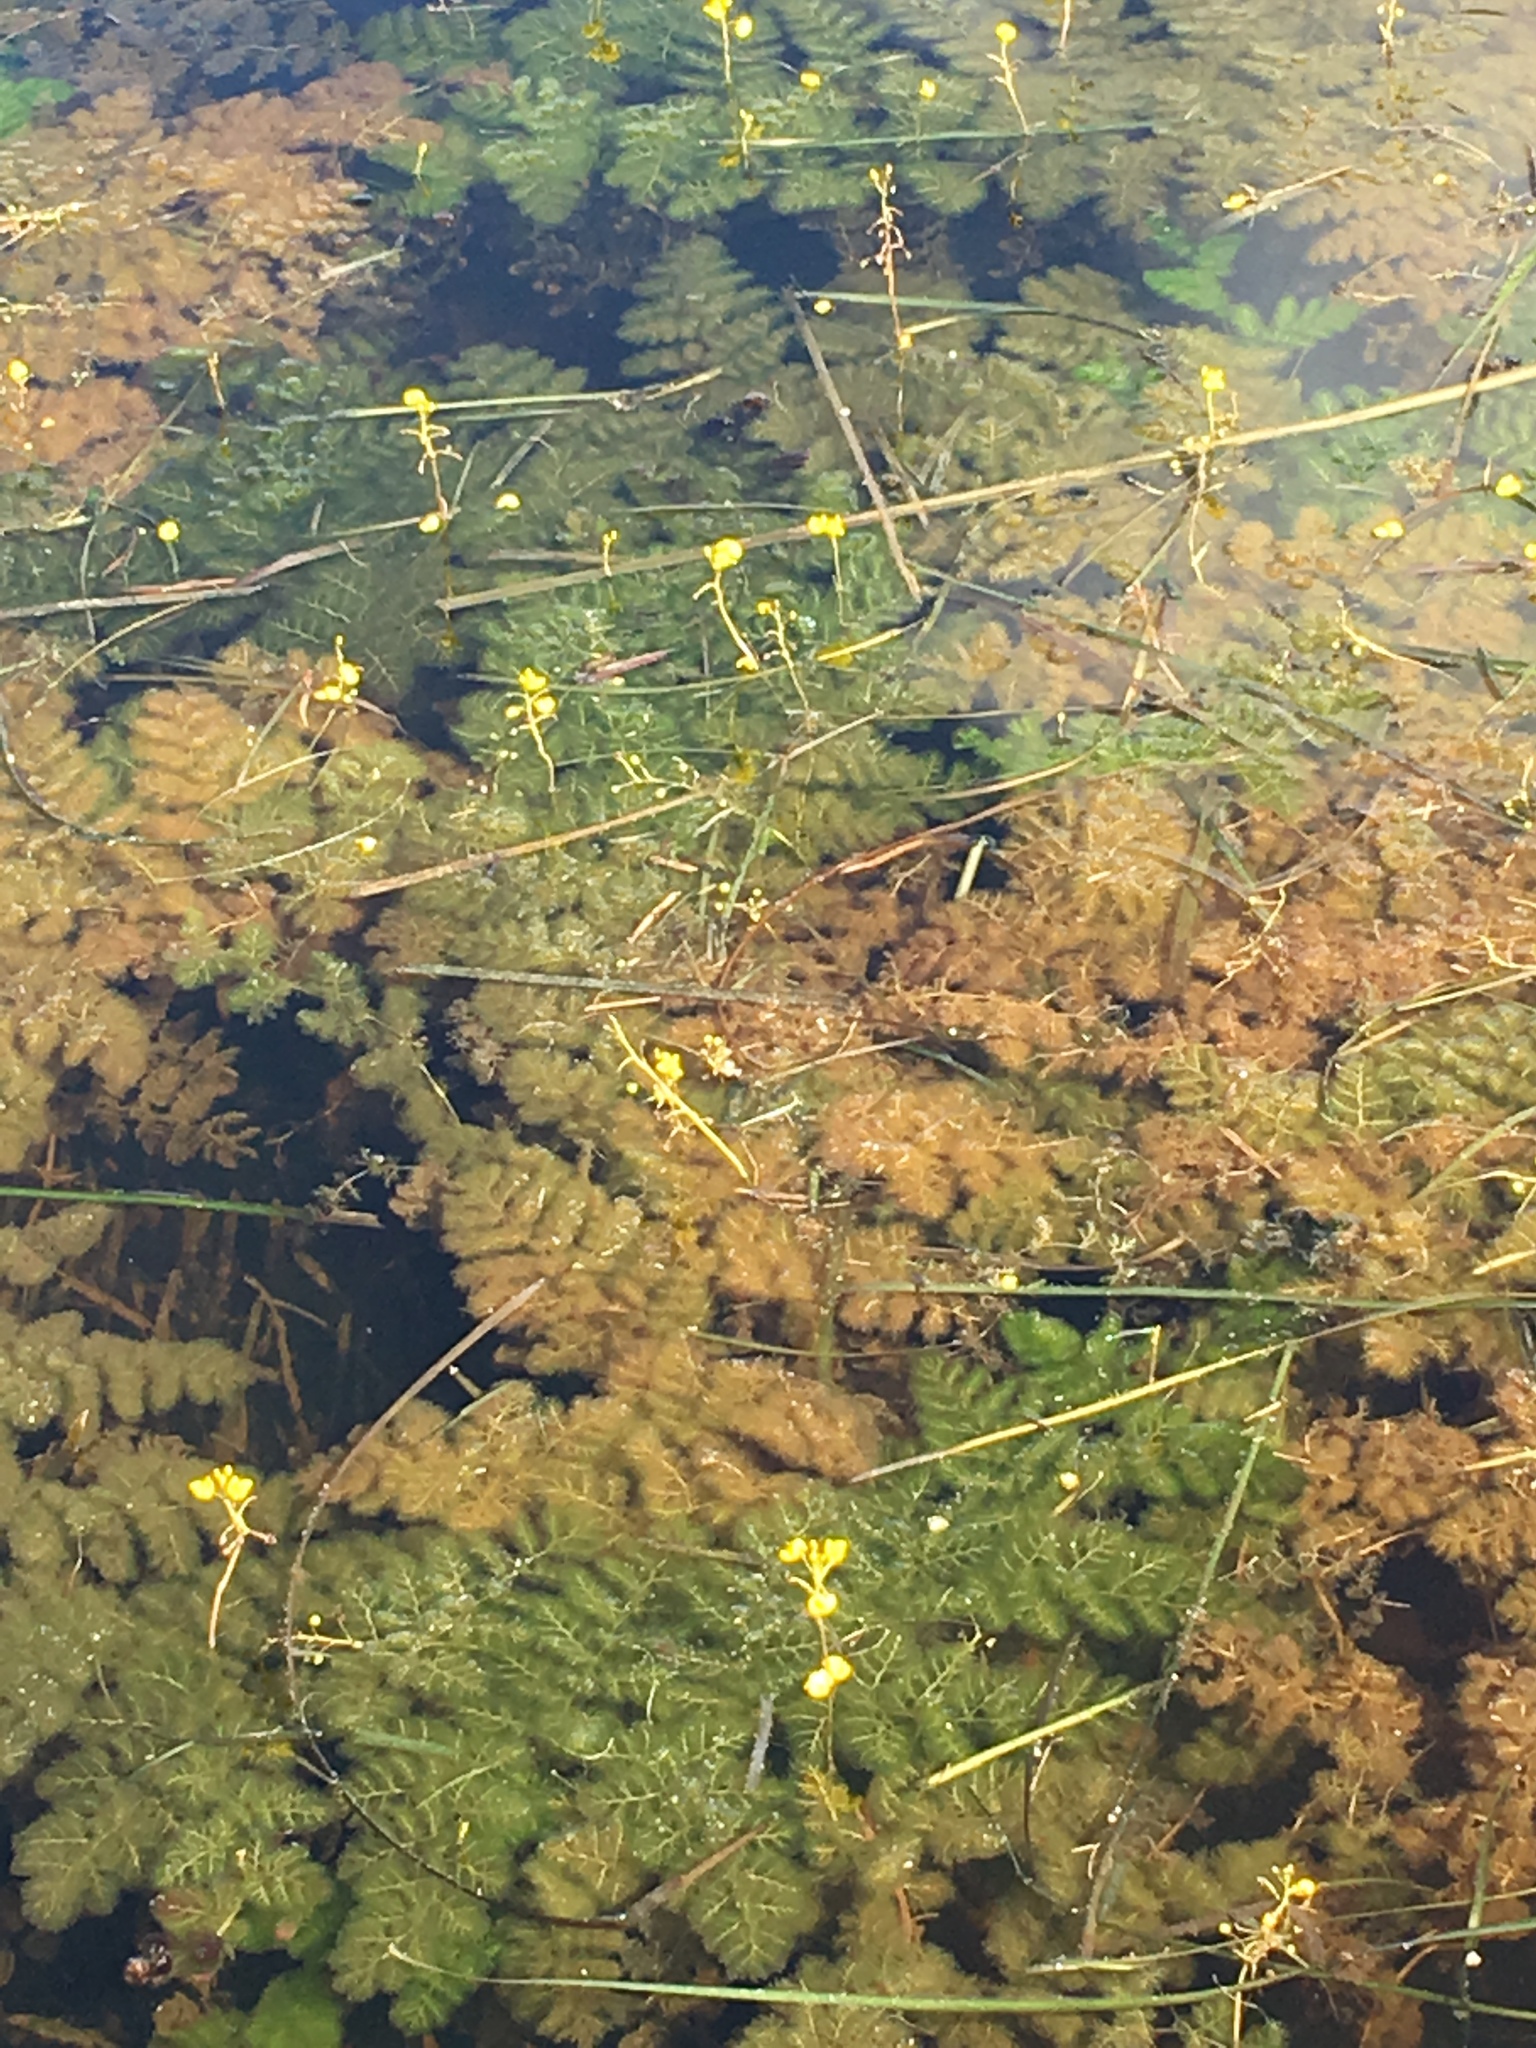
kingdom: Plantae
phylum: Tracheophyta
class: Magnoliopsida
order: Lamiales
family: Lentibulariaceae
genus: Utricularia
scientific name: Utricularia foliosa
